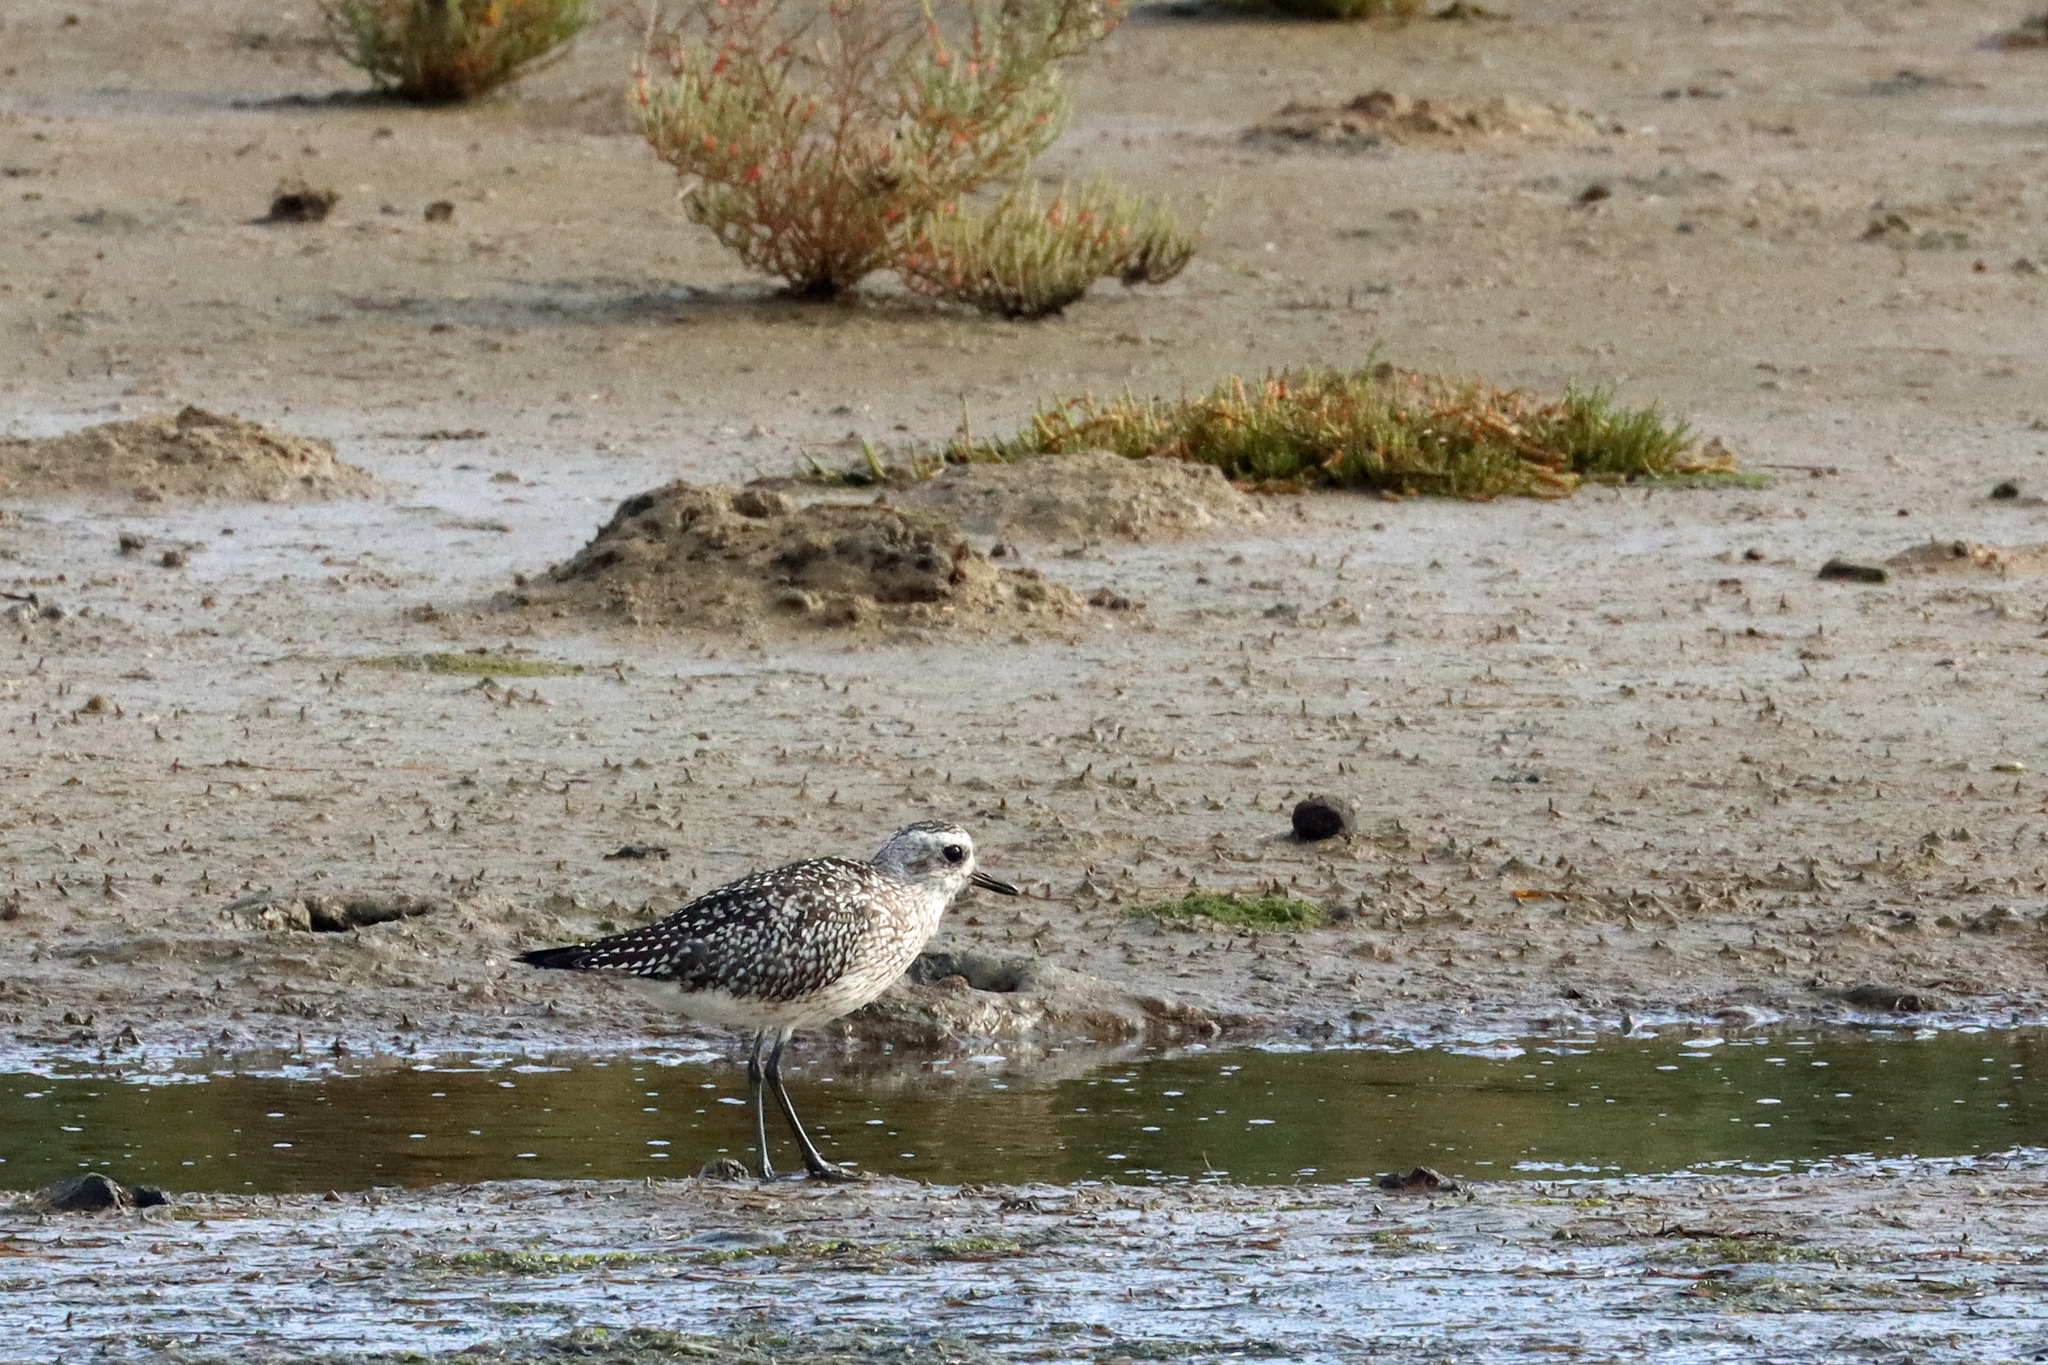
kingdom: Animalia
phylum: Chordata
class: Aves
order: Charadriiformes
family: Charadriidae
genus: Pluvialis
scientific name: Pluvialis squatarola
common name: Grey plover
